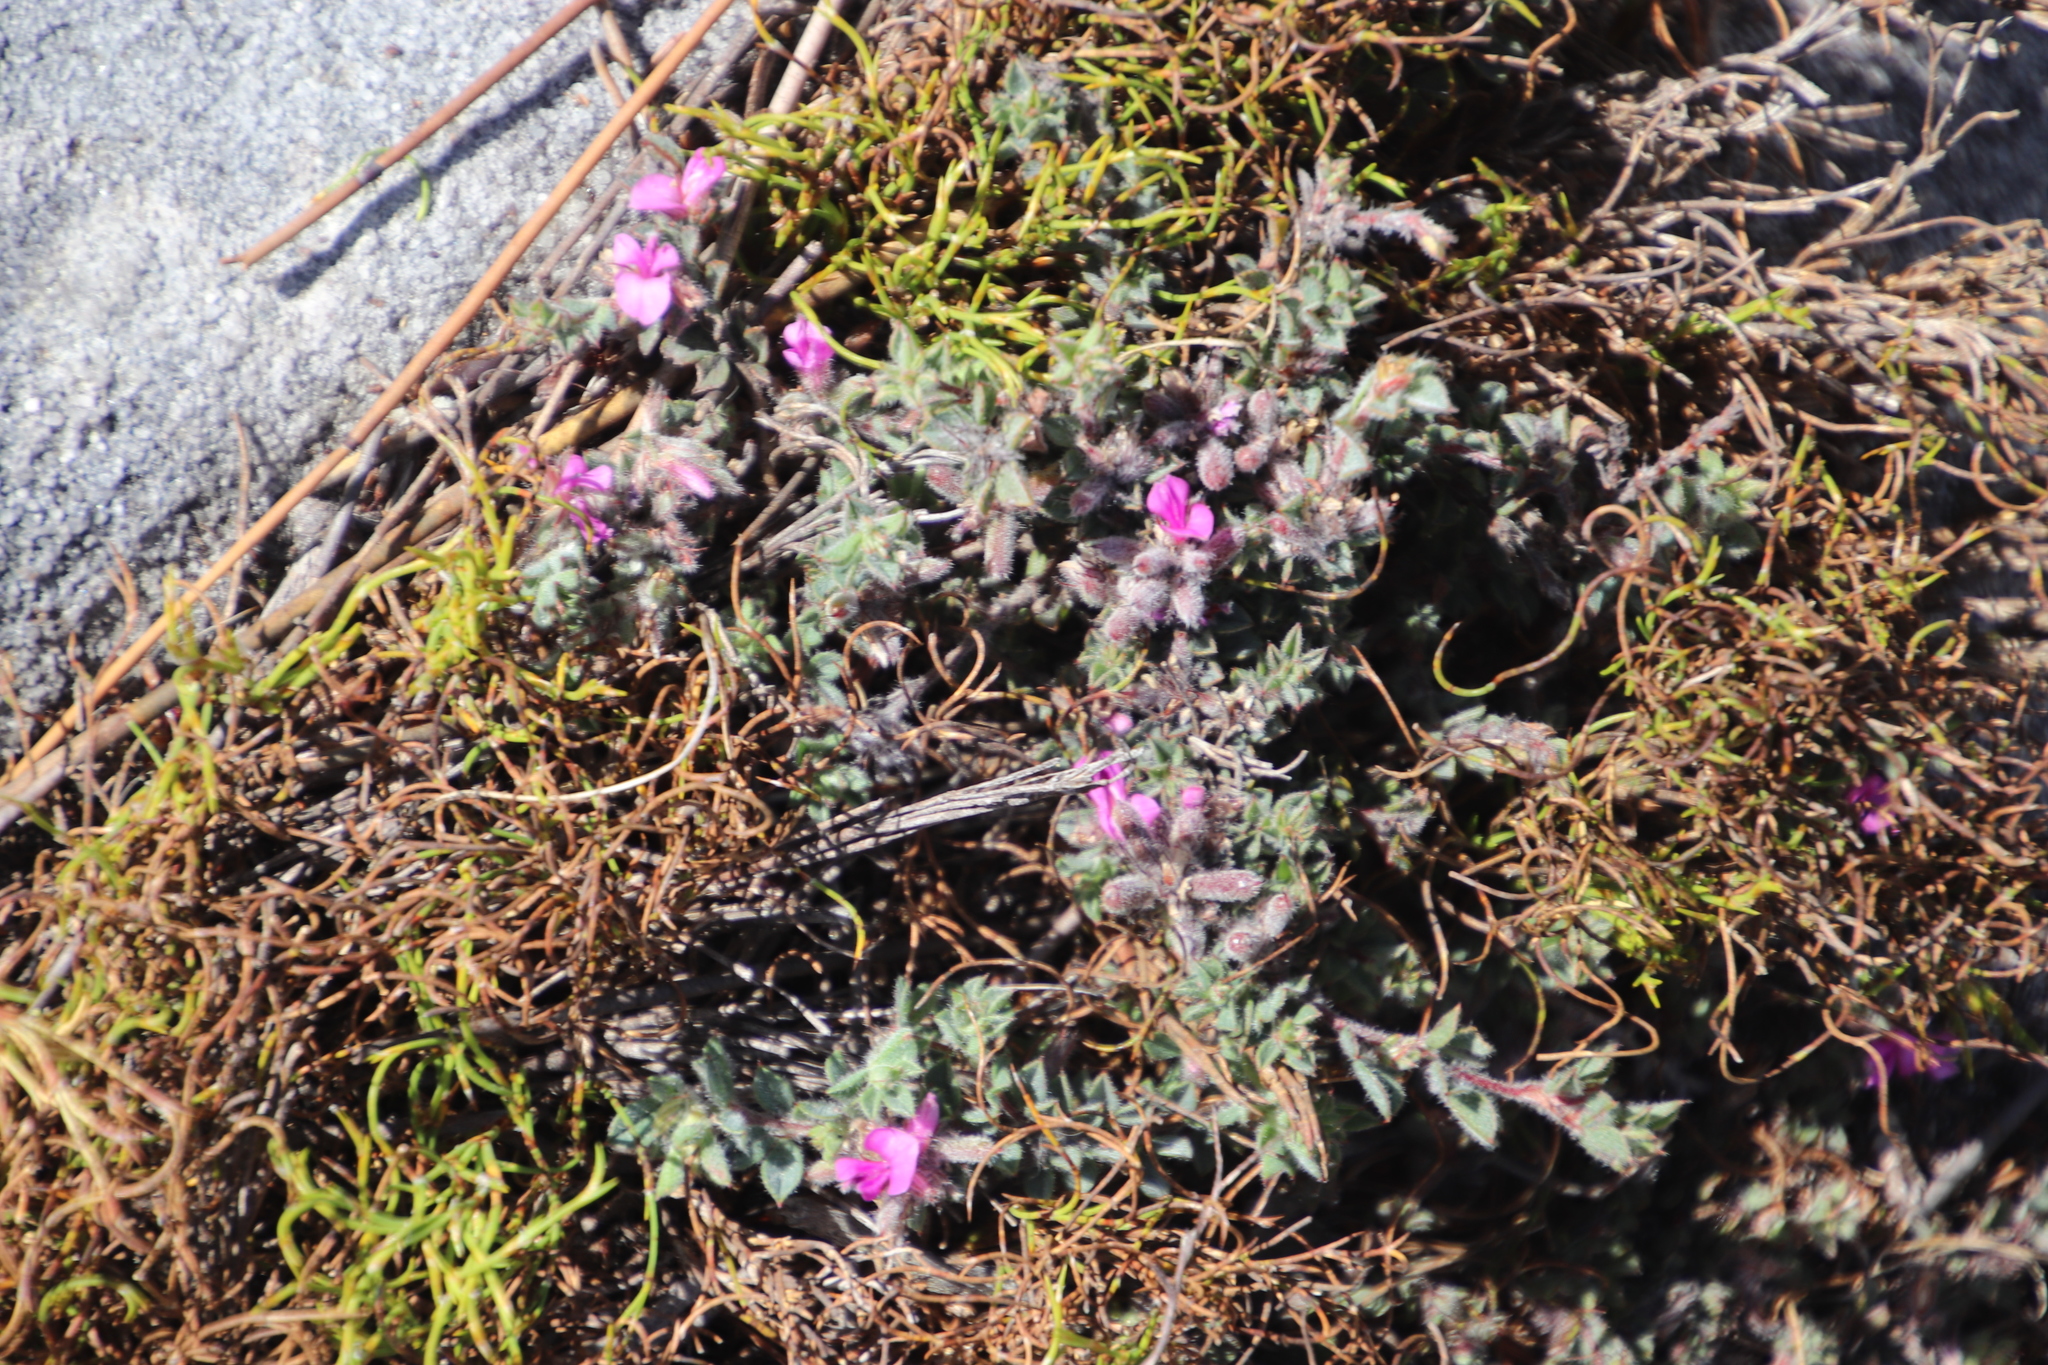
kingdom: Plantae
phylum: Tracheophyta
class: Magnoliopsida
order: Fabales
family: Fabaceae
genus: Indigofera
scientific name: Indigofera glomerata
